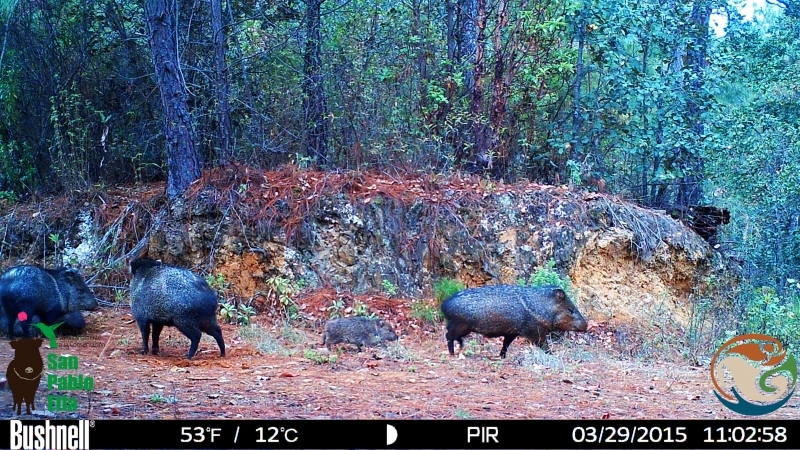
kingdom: Animalia
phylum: Chordata
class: Mammalia
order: Artiodactyla
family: Tayassuidae
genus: Pecari
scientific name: Pecari tajacu
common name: Collared peccary
